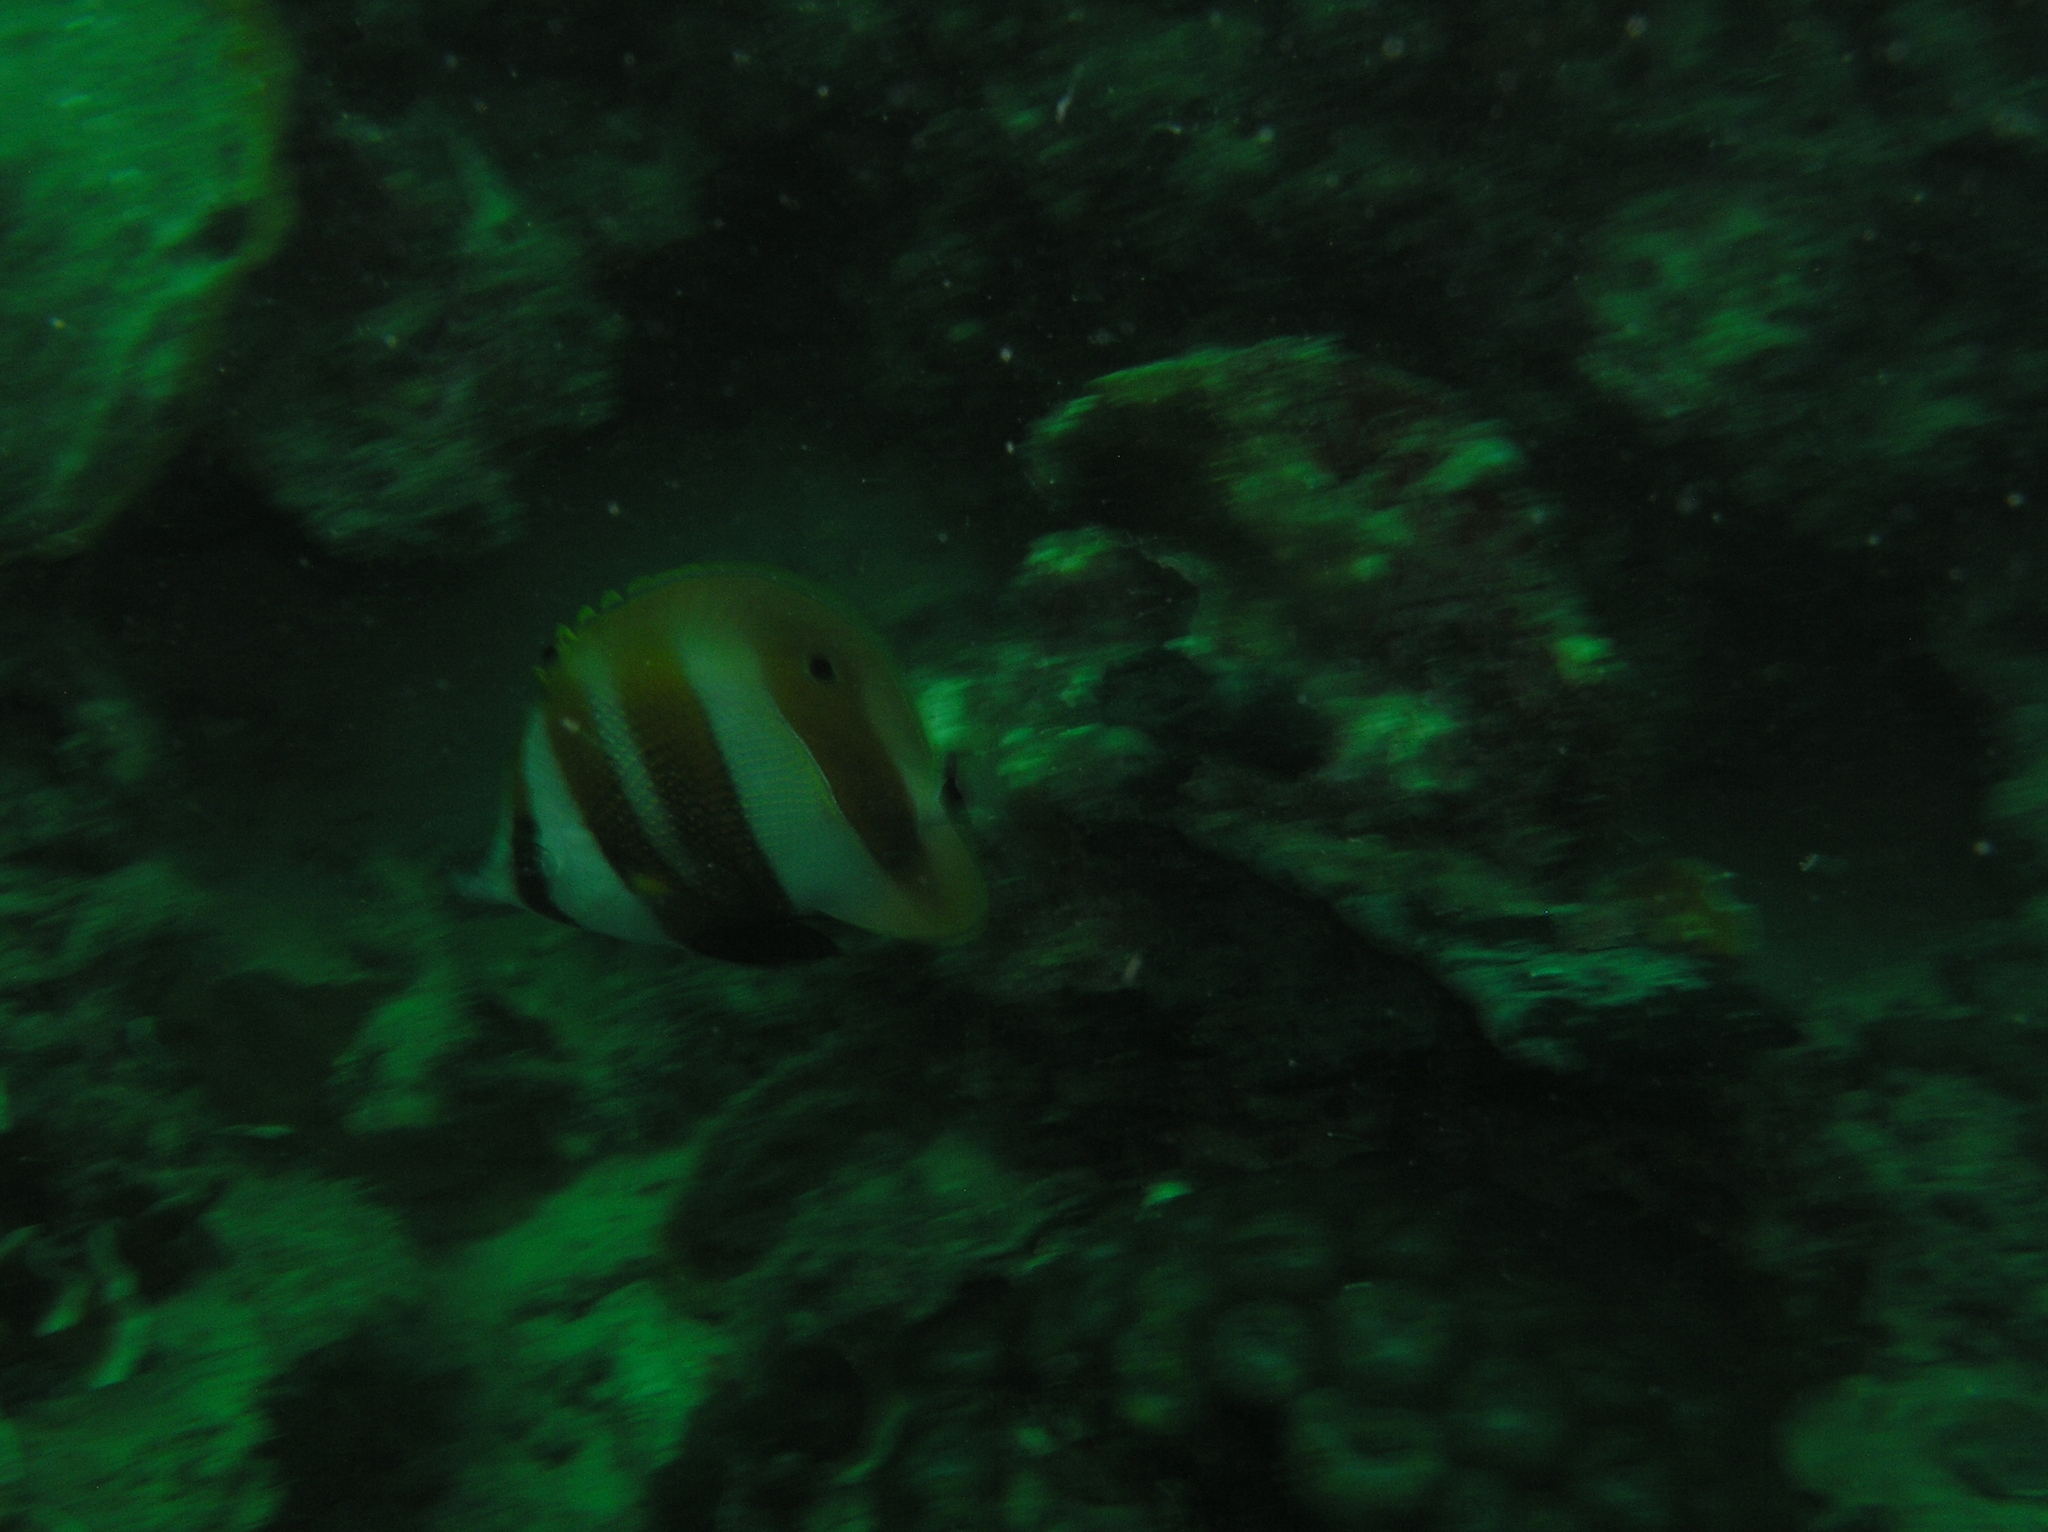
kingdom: Animalia
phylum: Chordata
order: Perciformes
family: Chaetodontidae
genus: Coradion
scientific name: Coradion chrysozonus
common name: Orange-banded coralfish
